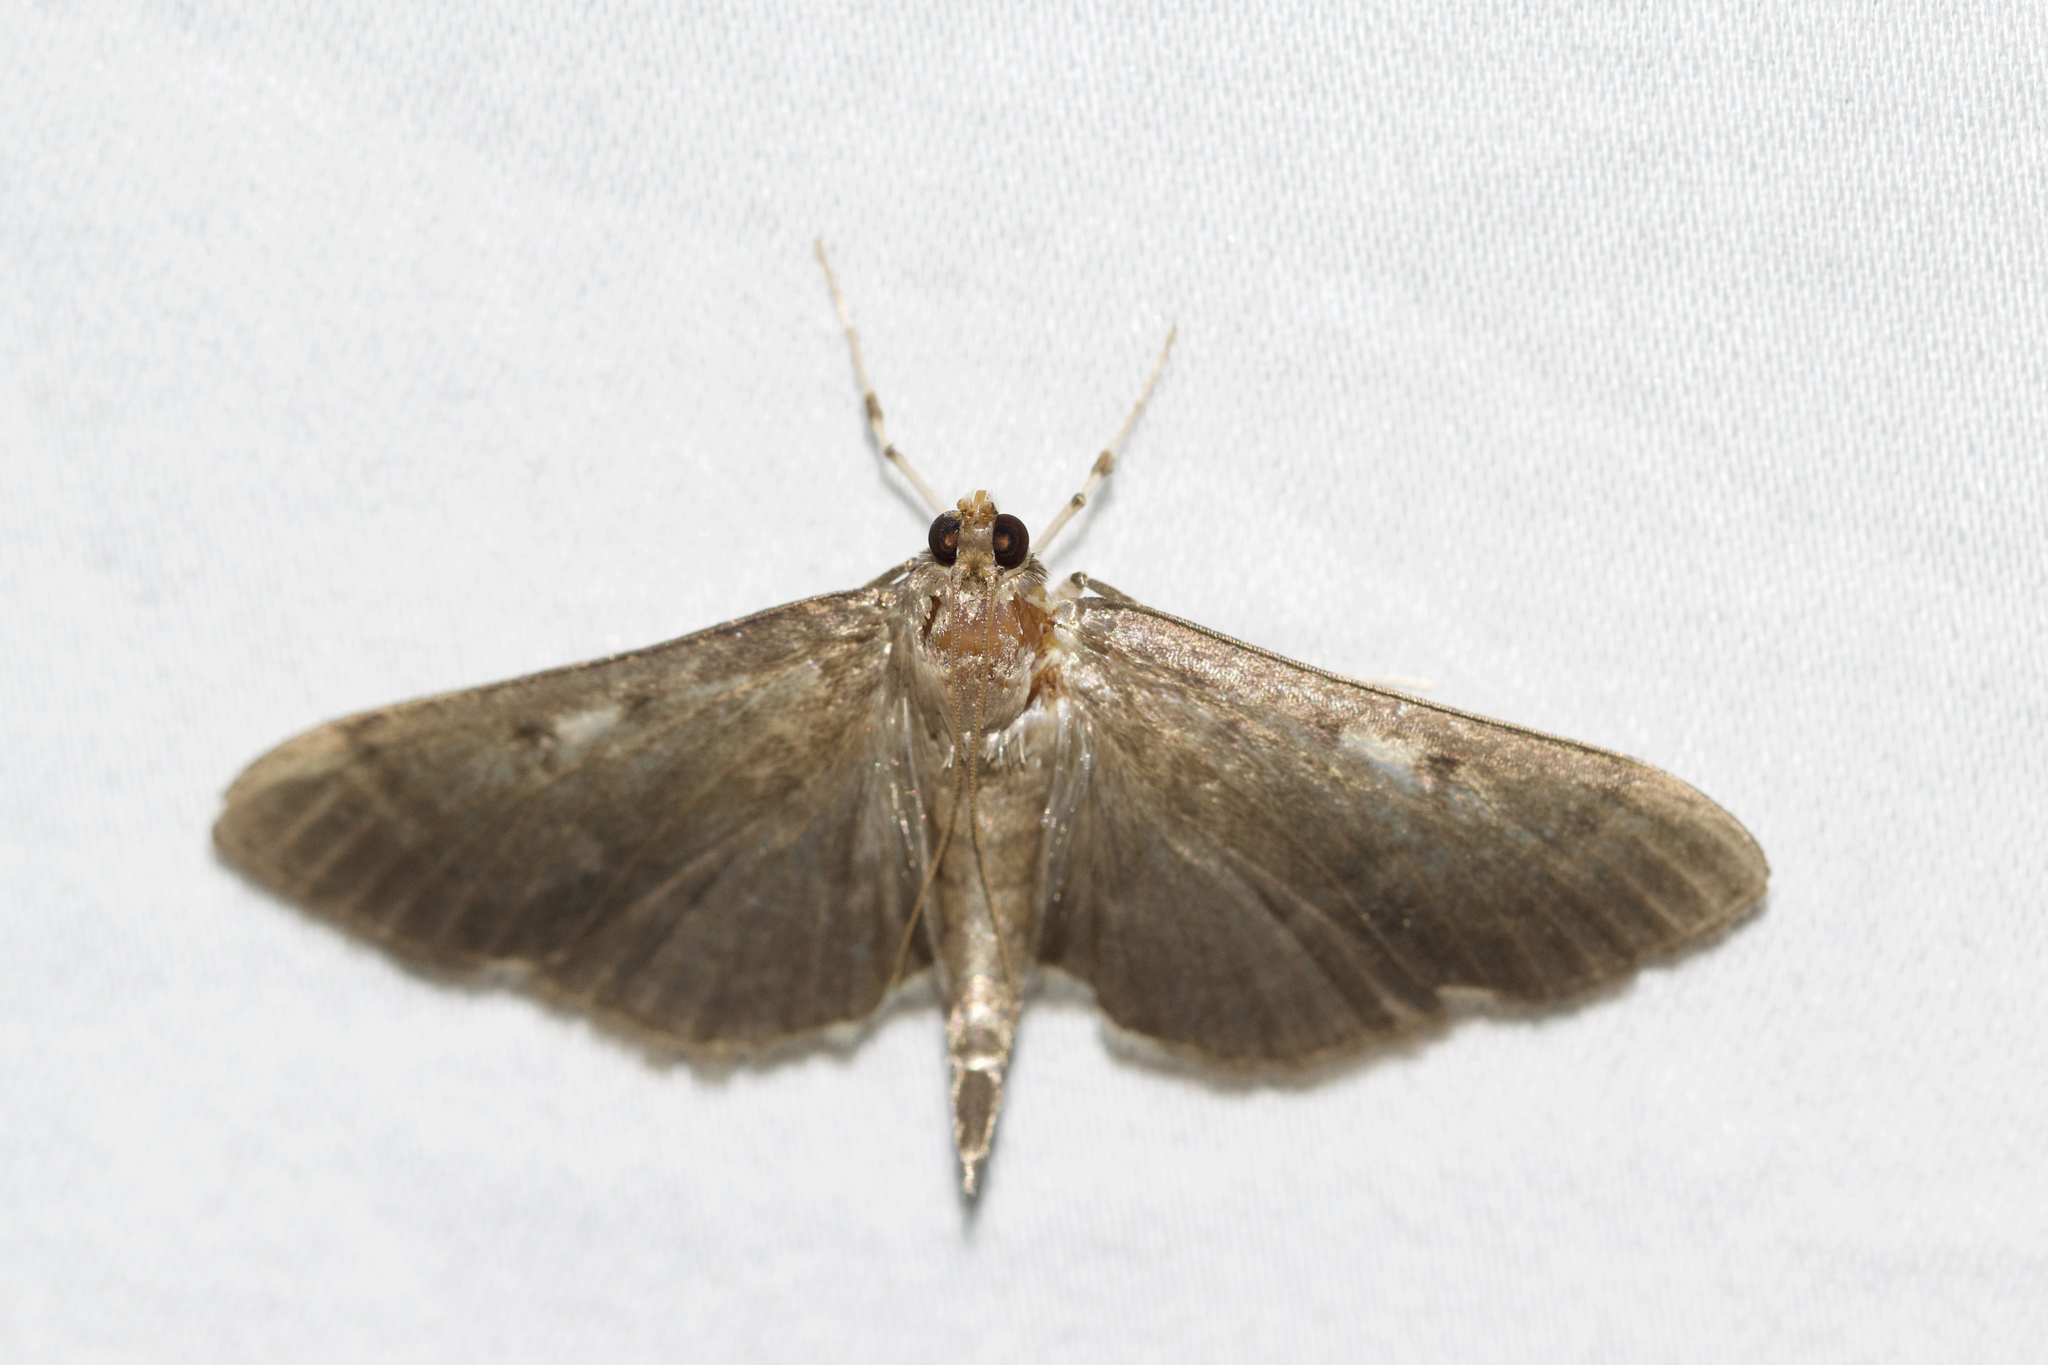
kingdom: Animalia
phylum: Arthropoda
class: Insecta
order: Lepidoptera
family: Crambidae
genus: Herpetogramma
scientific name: Herpetogramma sphingealis
